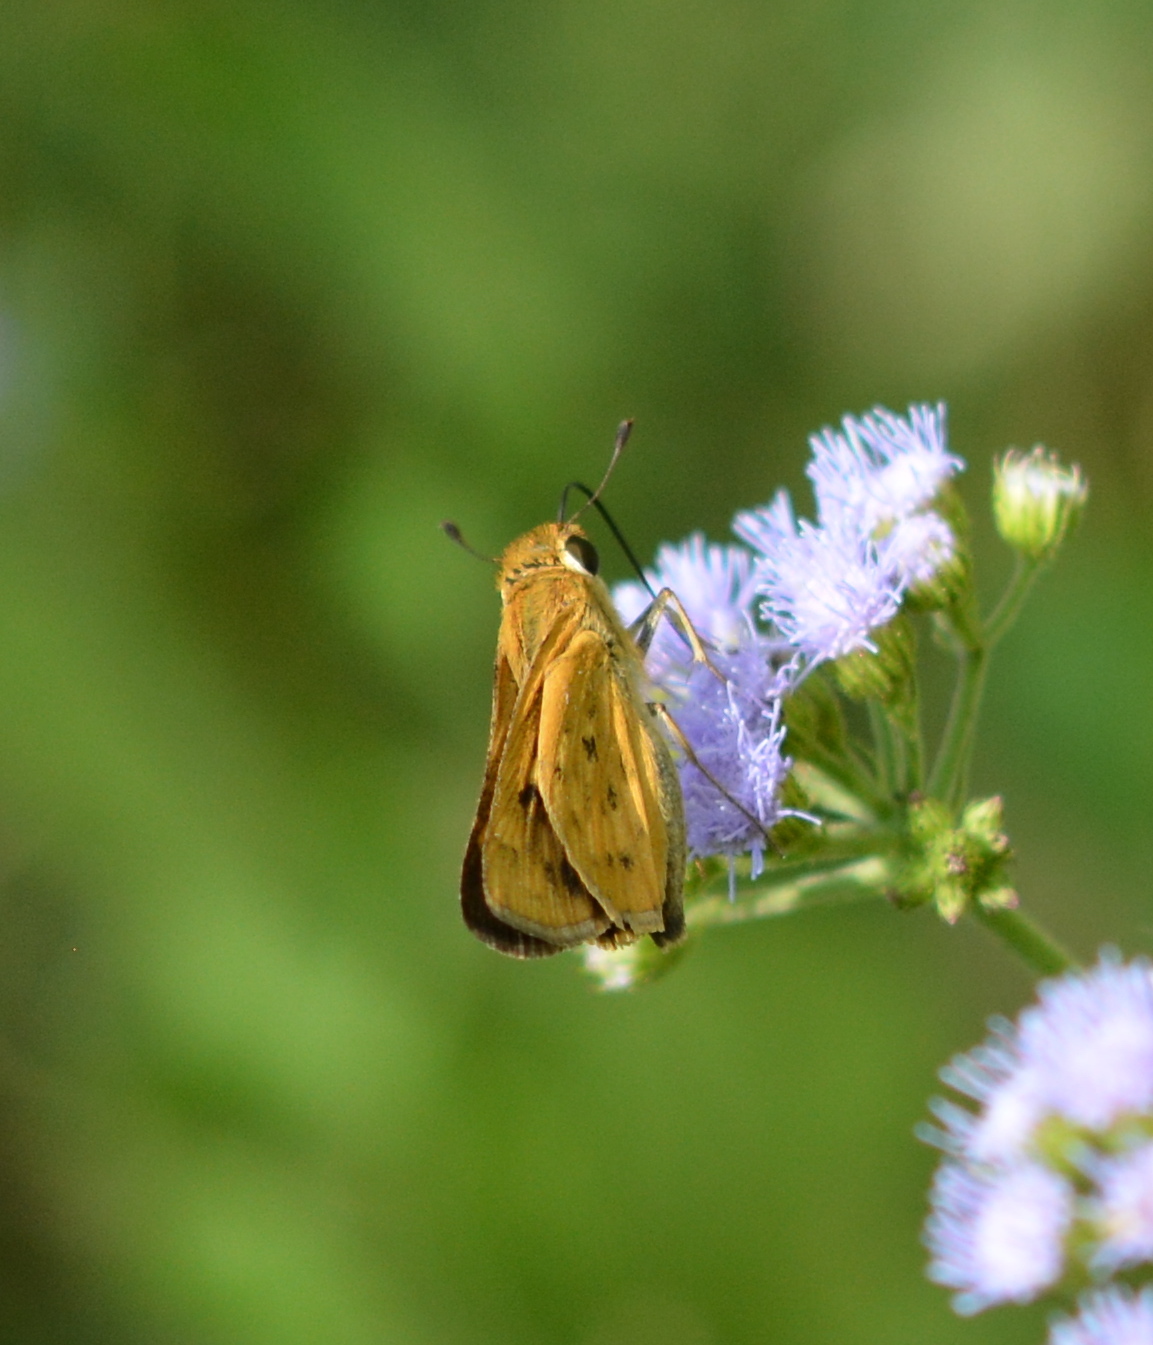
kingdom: Animalia
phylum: Arthropoda
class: Insecta
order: Lepidoptera
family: Hesperiidae
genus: Hylephila
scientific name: Hylephila phyleus
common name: Fiery skipper
